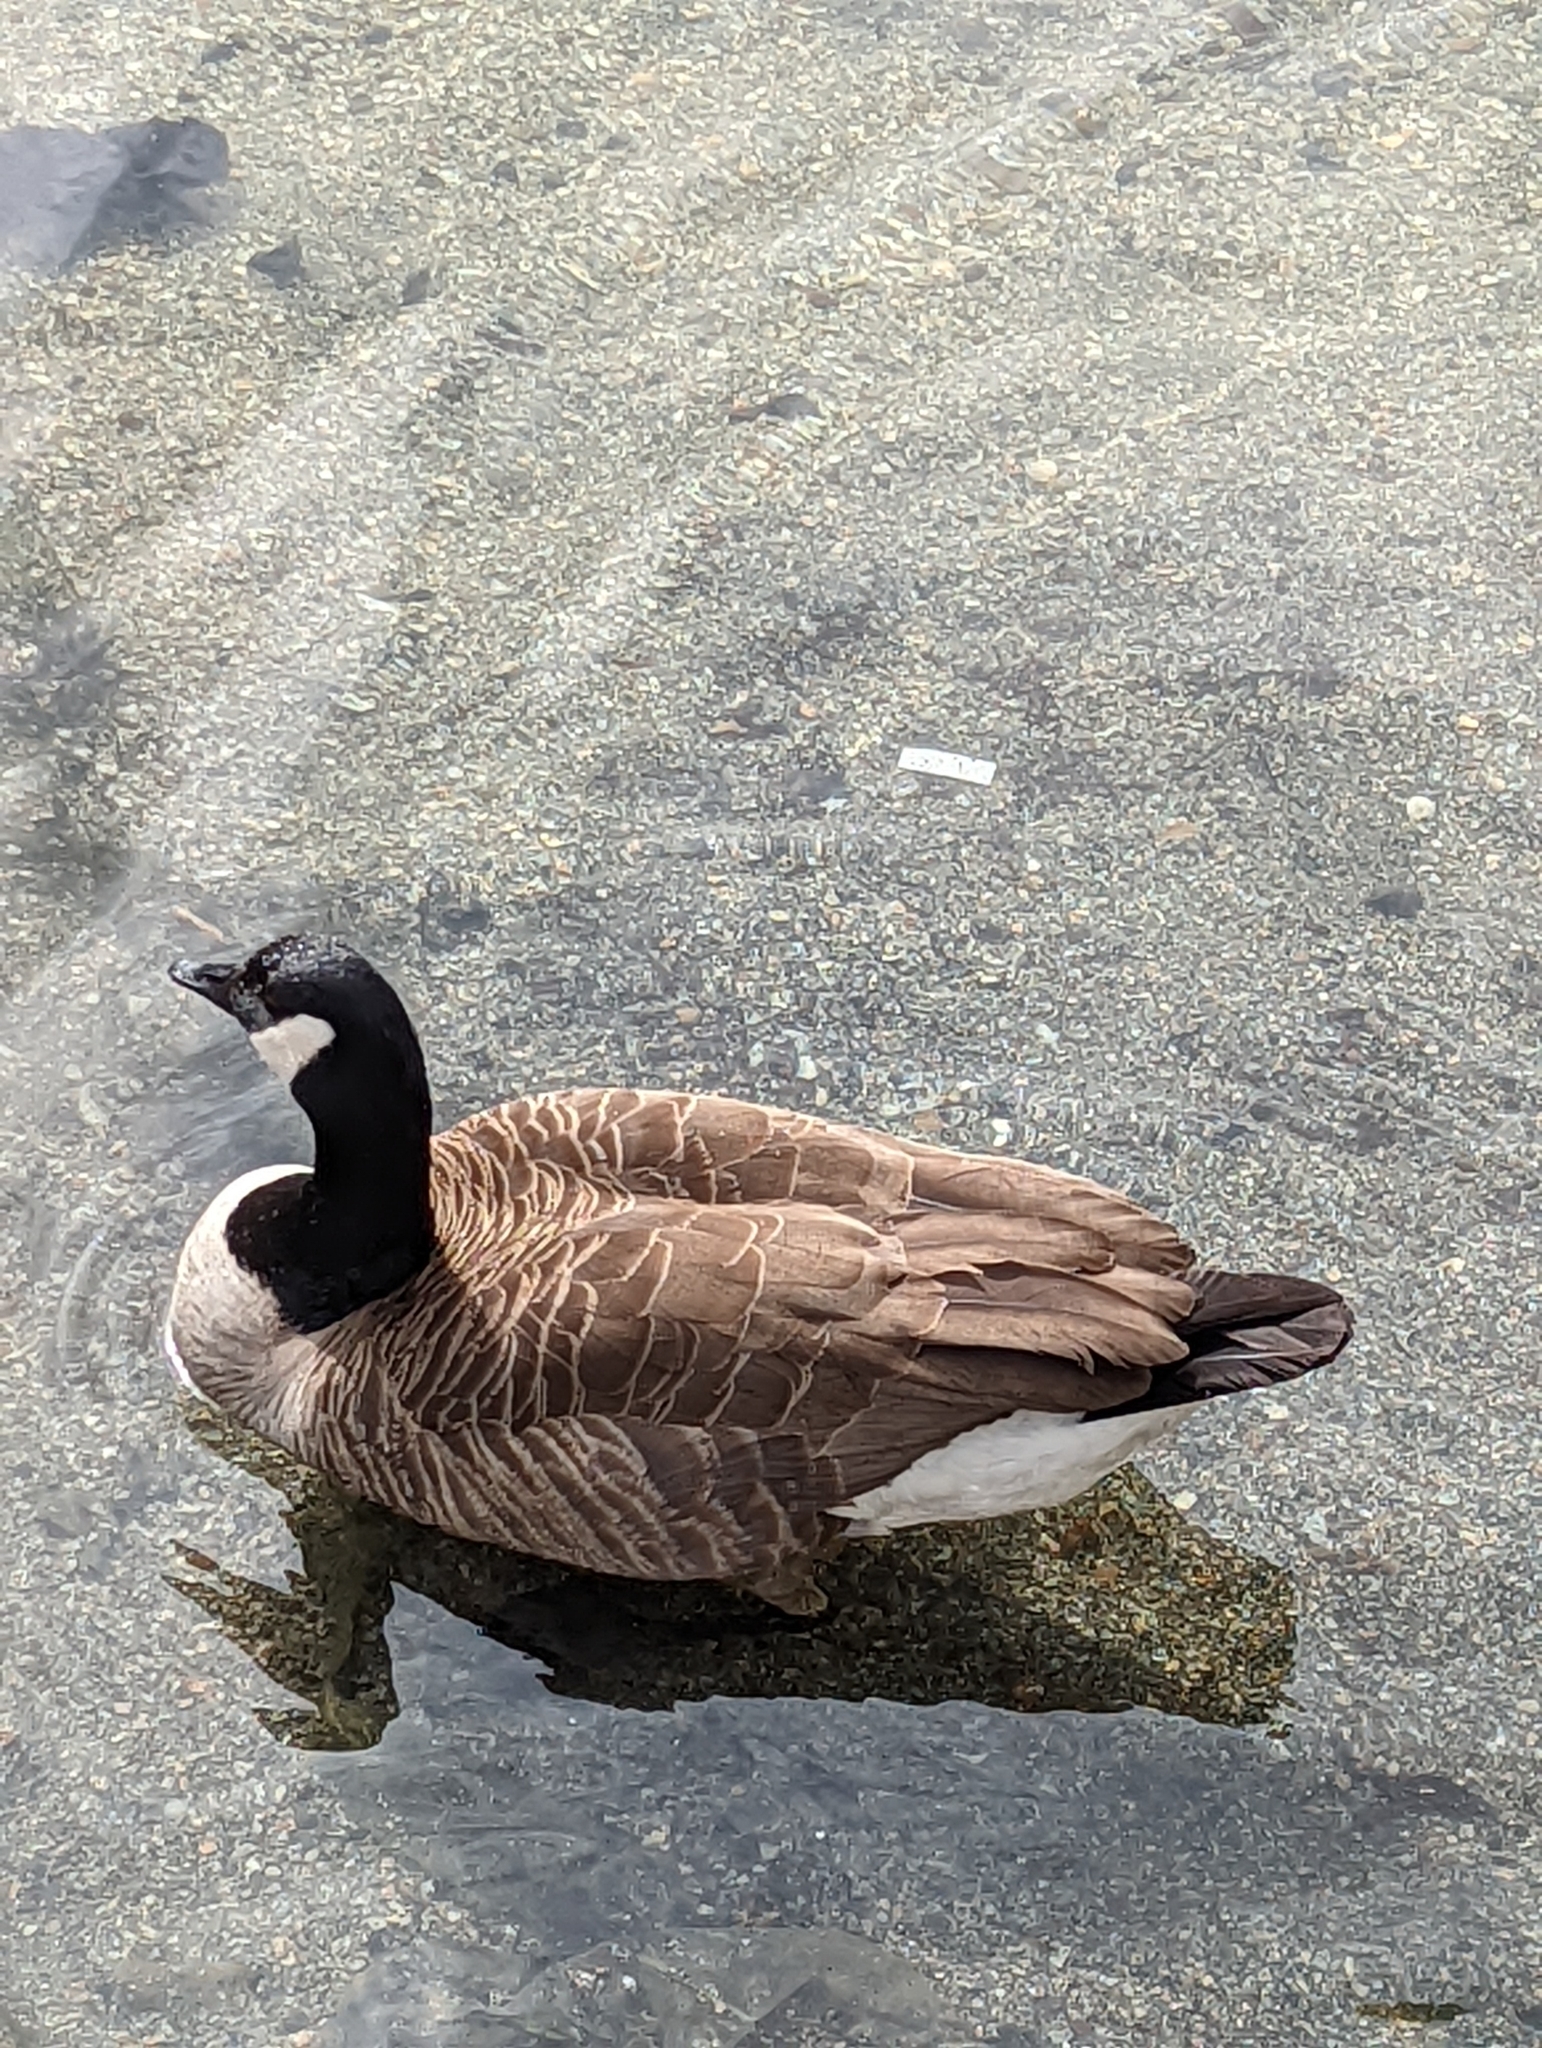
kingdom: Animalia
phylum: Chordata
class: Aves
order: Anseriformes
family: Anatidae
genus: Branta
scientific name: Branta canadensis
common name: Canada goose
